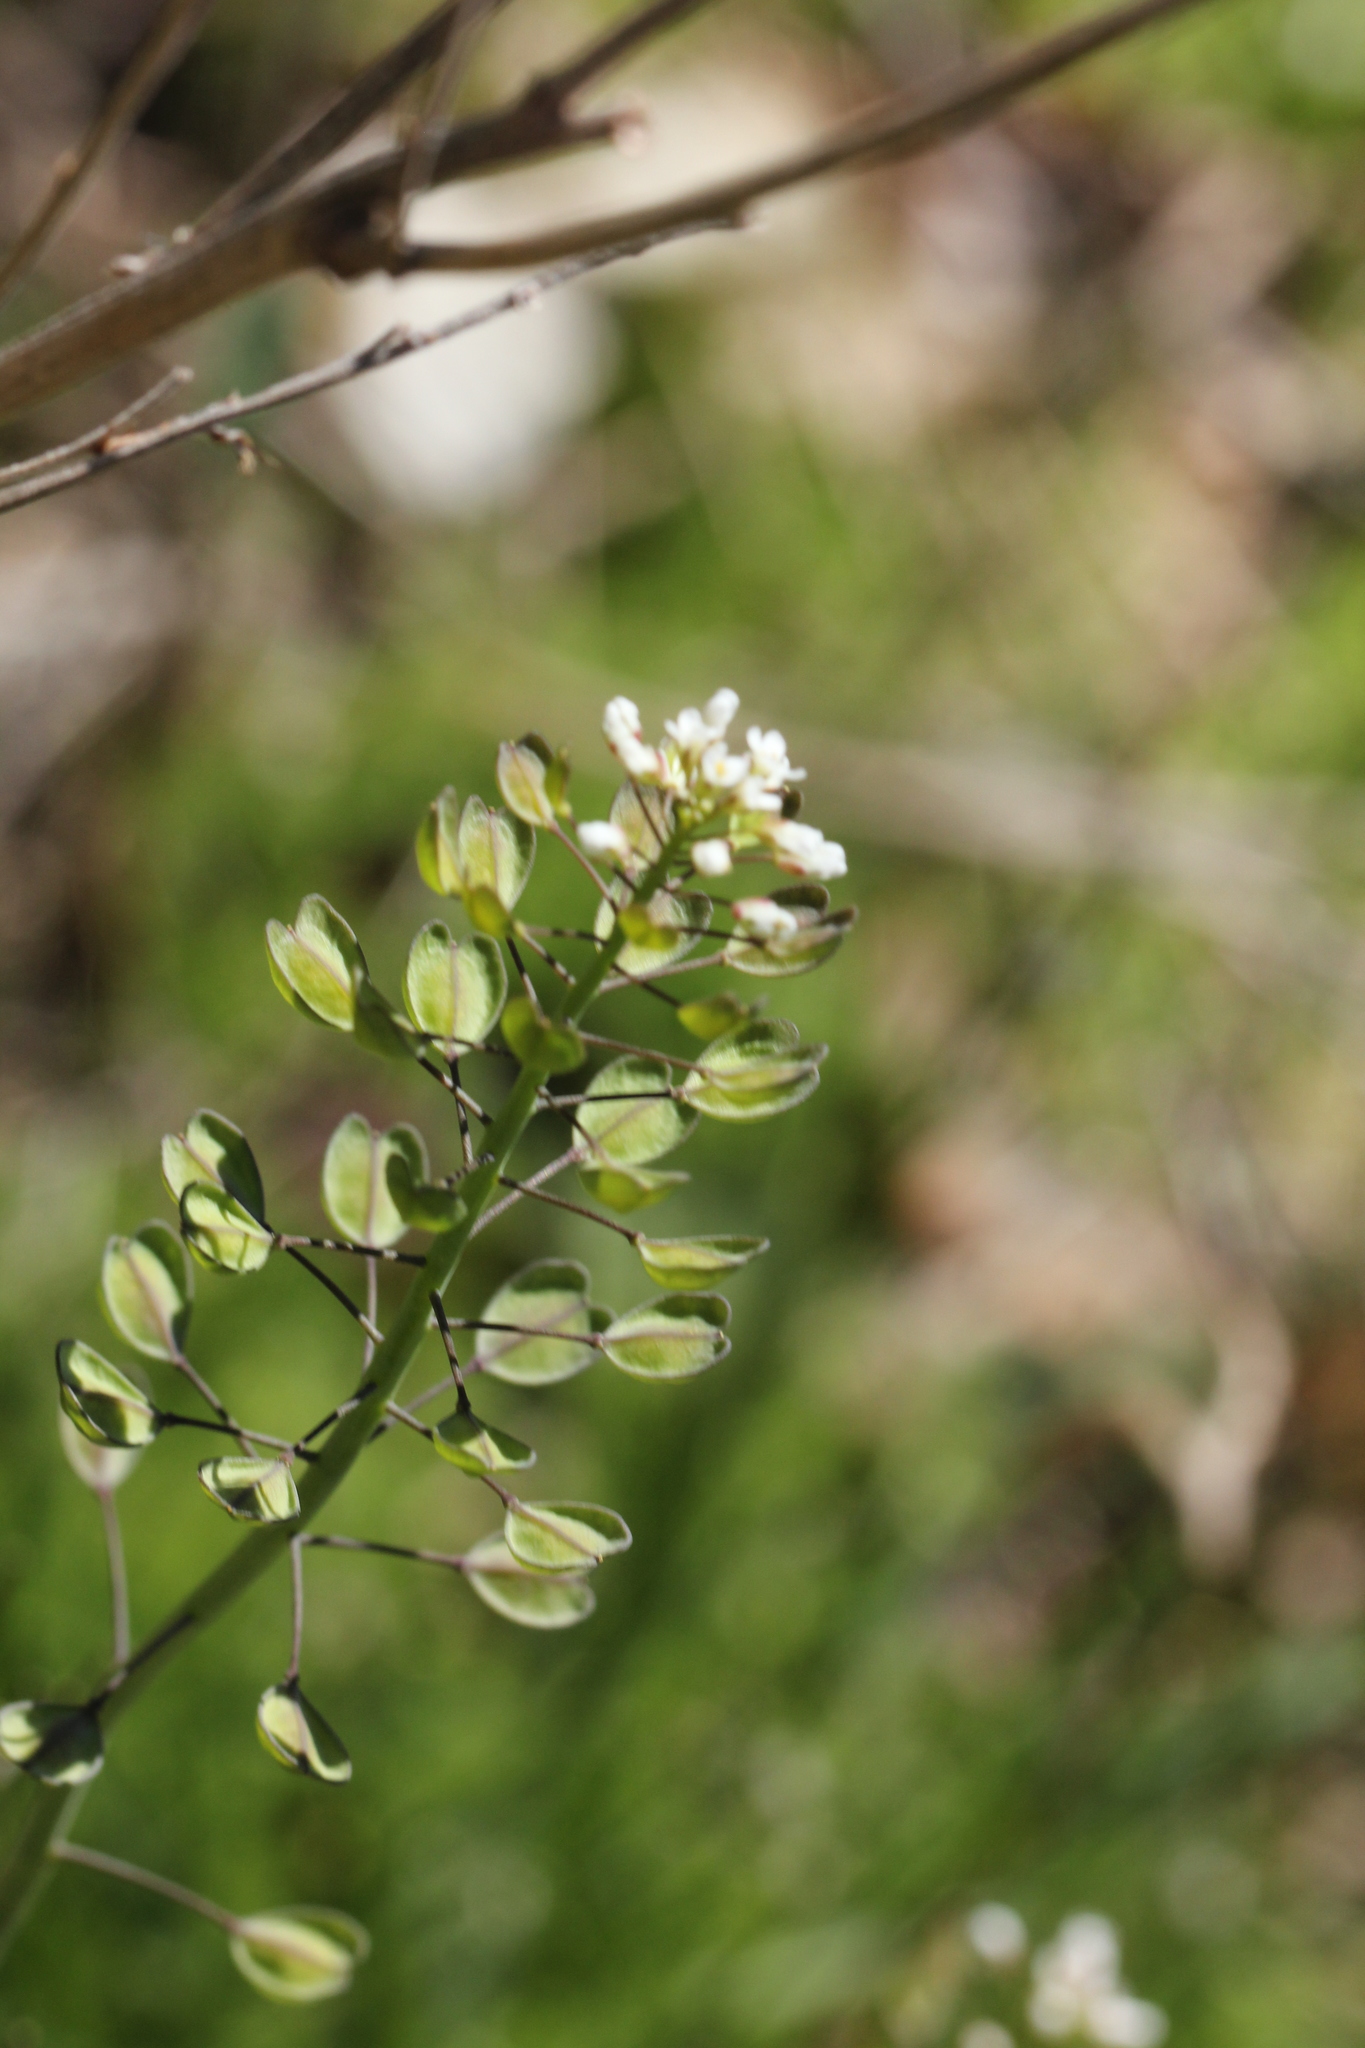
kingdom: Plantae
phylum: Tracheophyta
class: Magnoliopsida
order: Brassicales
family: Brassicaceae
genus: Mummenhoffia
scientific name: Mummenhoffia alliacea
